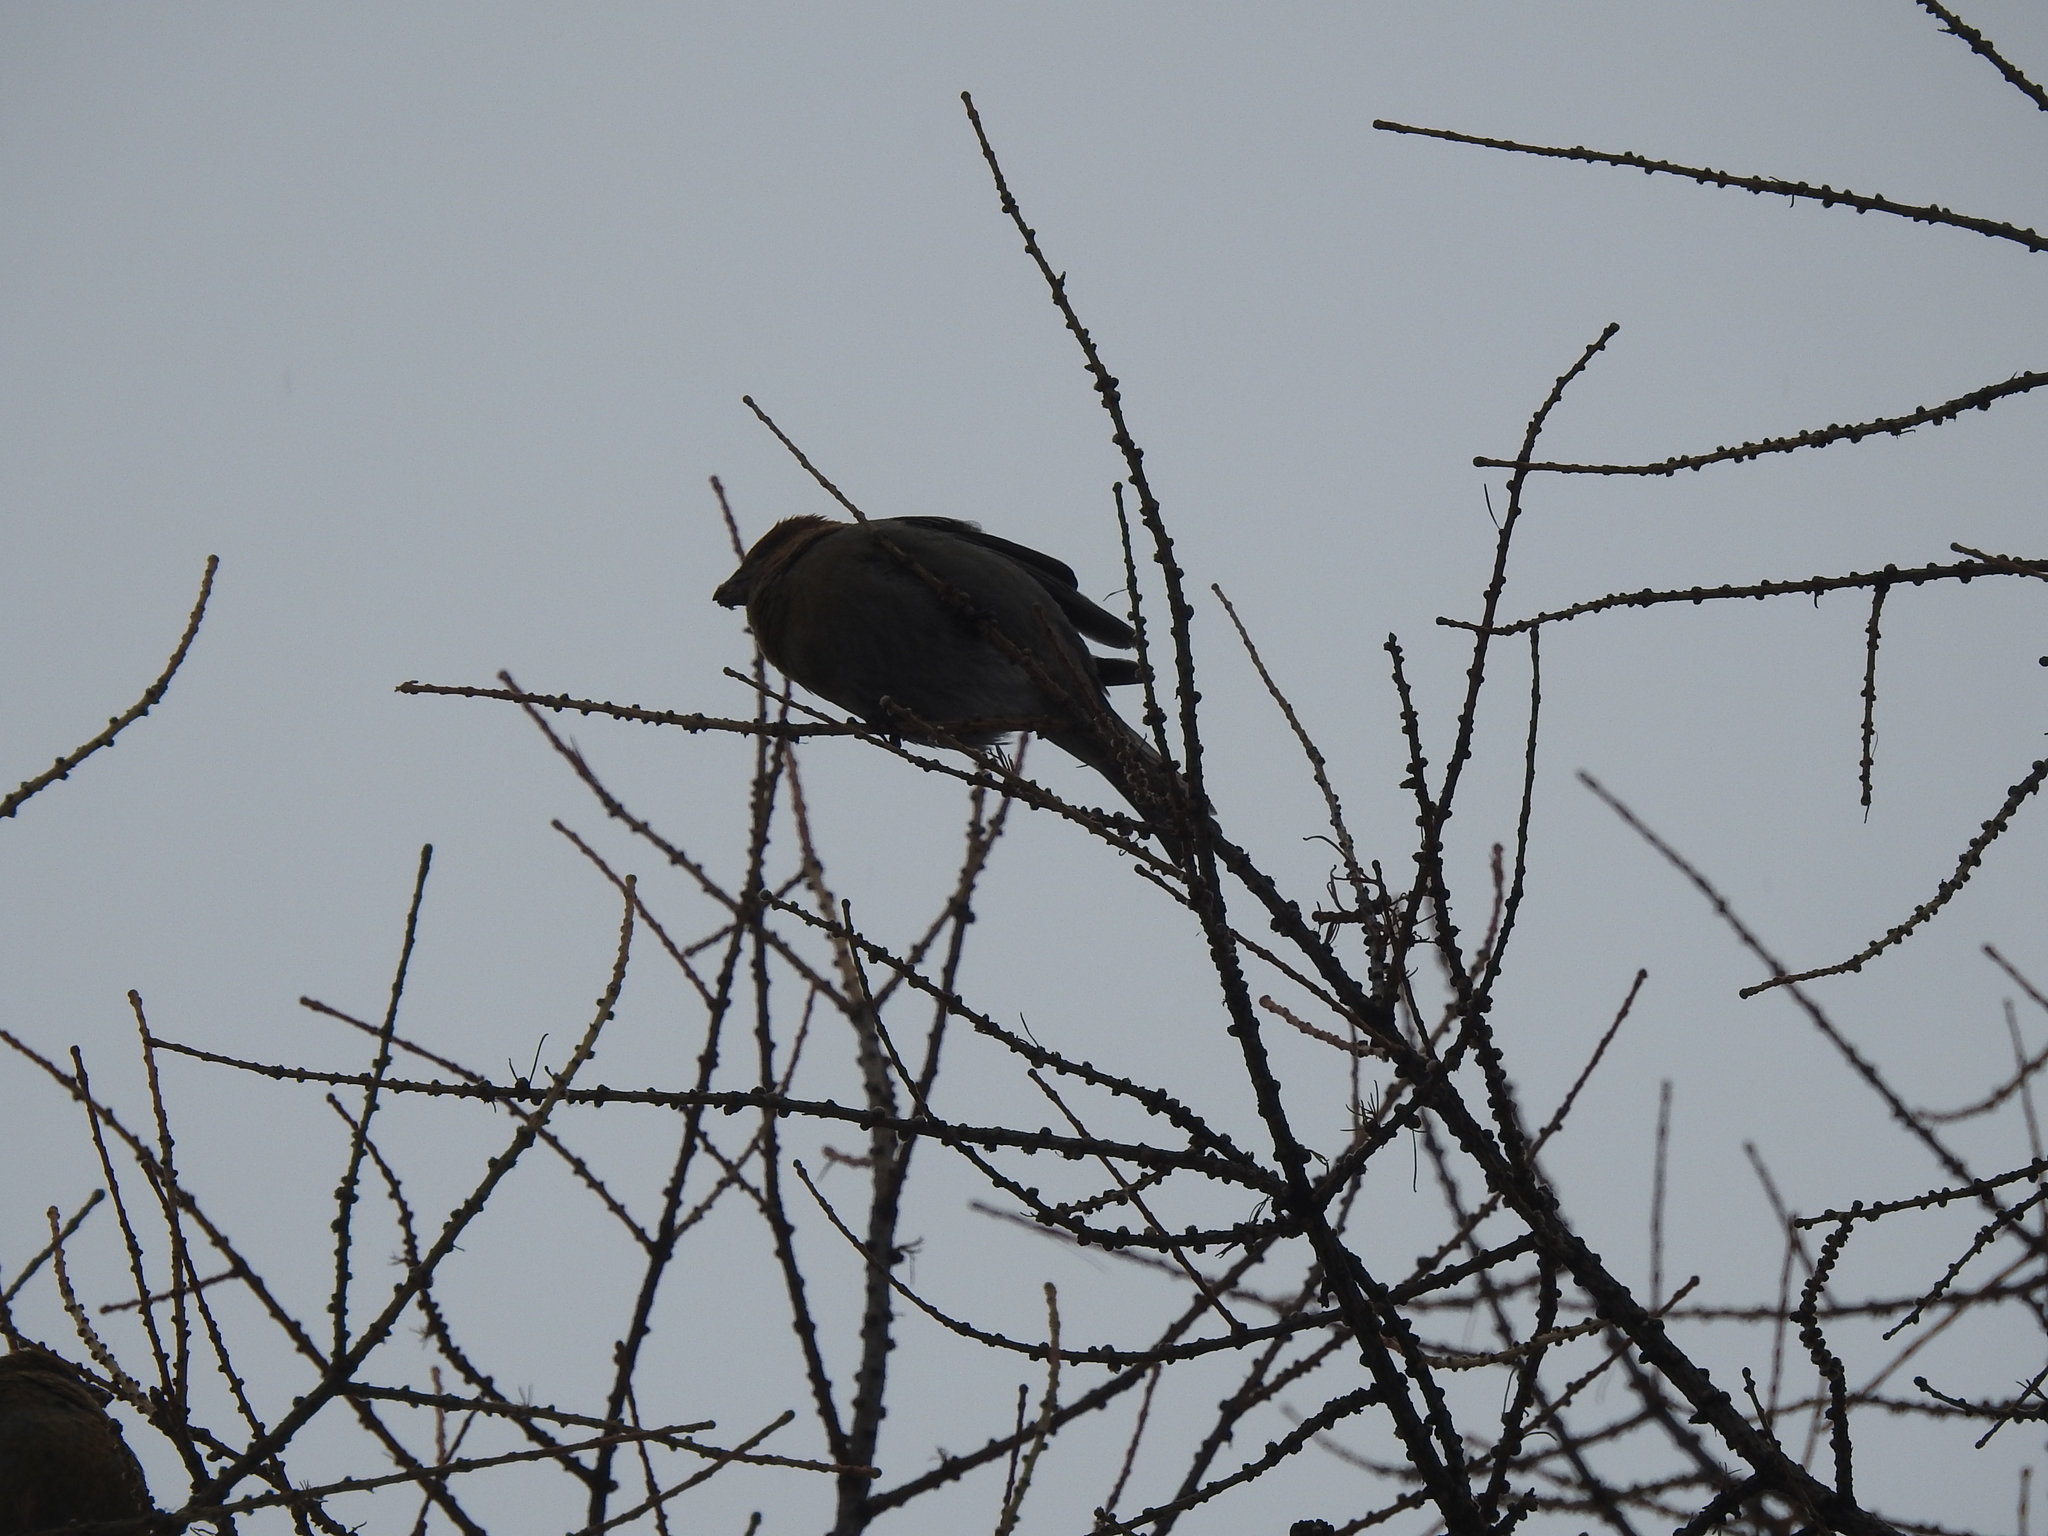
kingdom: Animalia
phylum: Chordata
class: Aves
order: Passeriformes
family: Fringillidae
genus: Pinicola
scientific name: Pinicola enucleator
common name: Pine grosbeak
